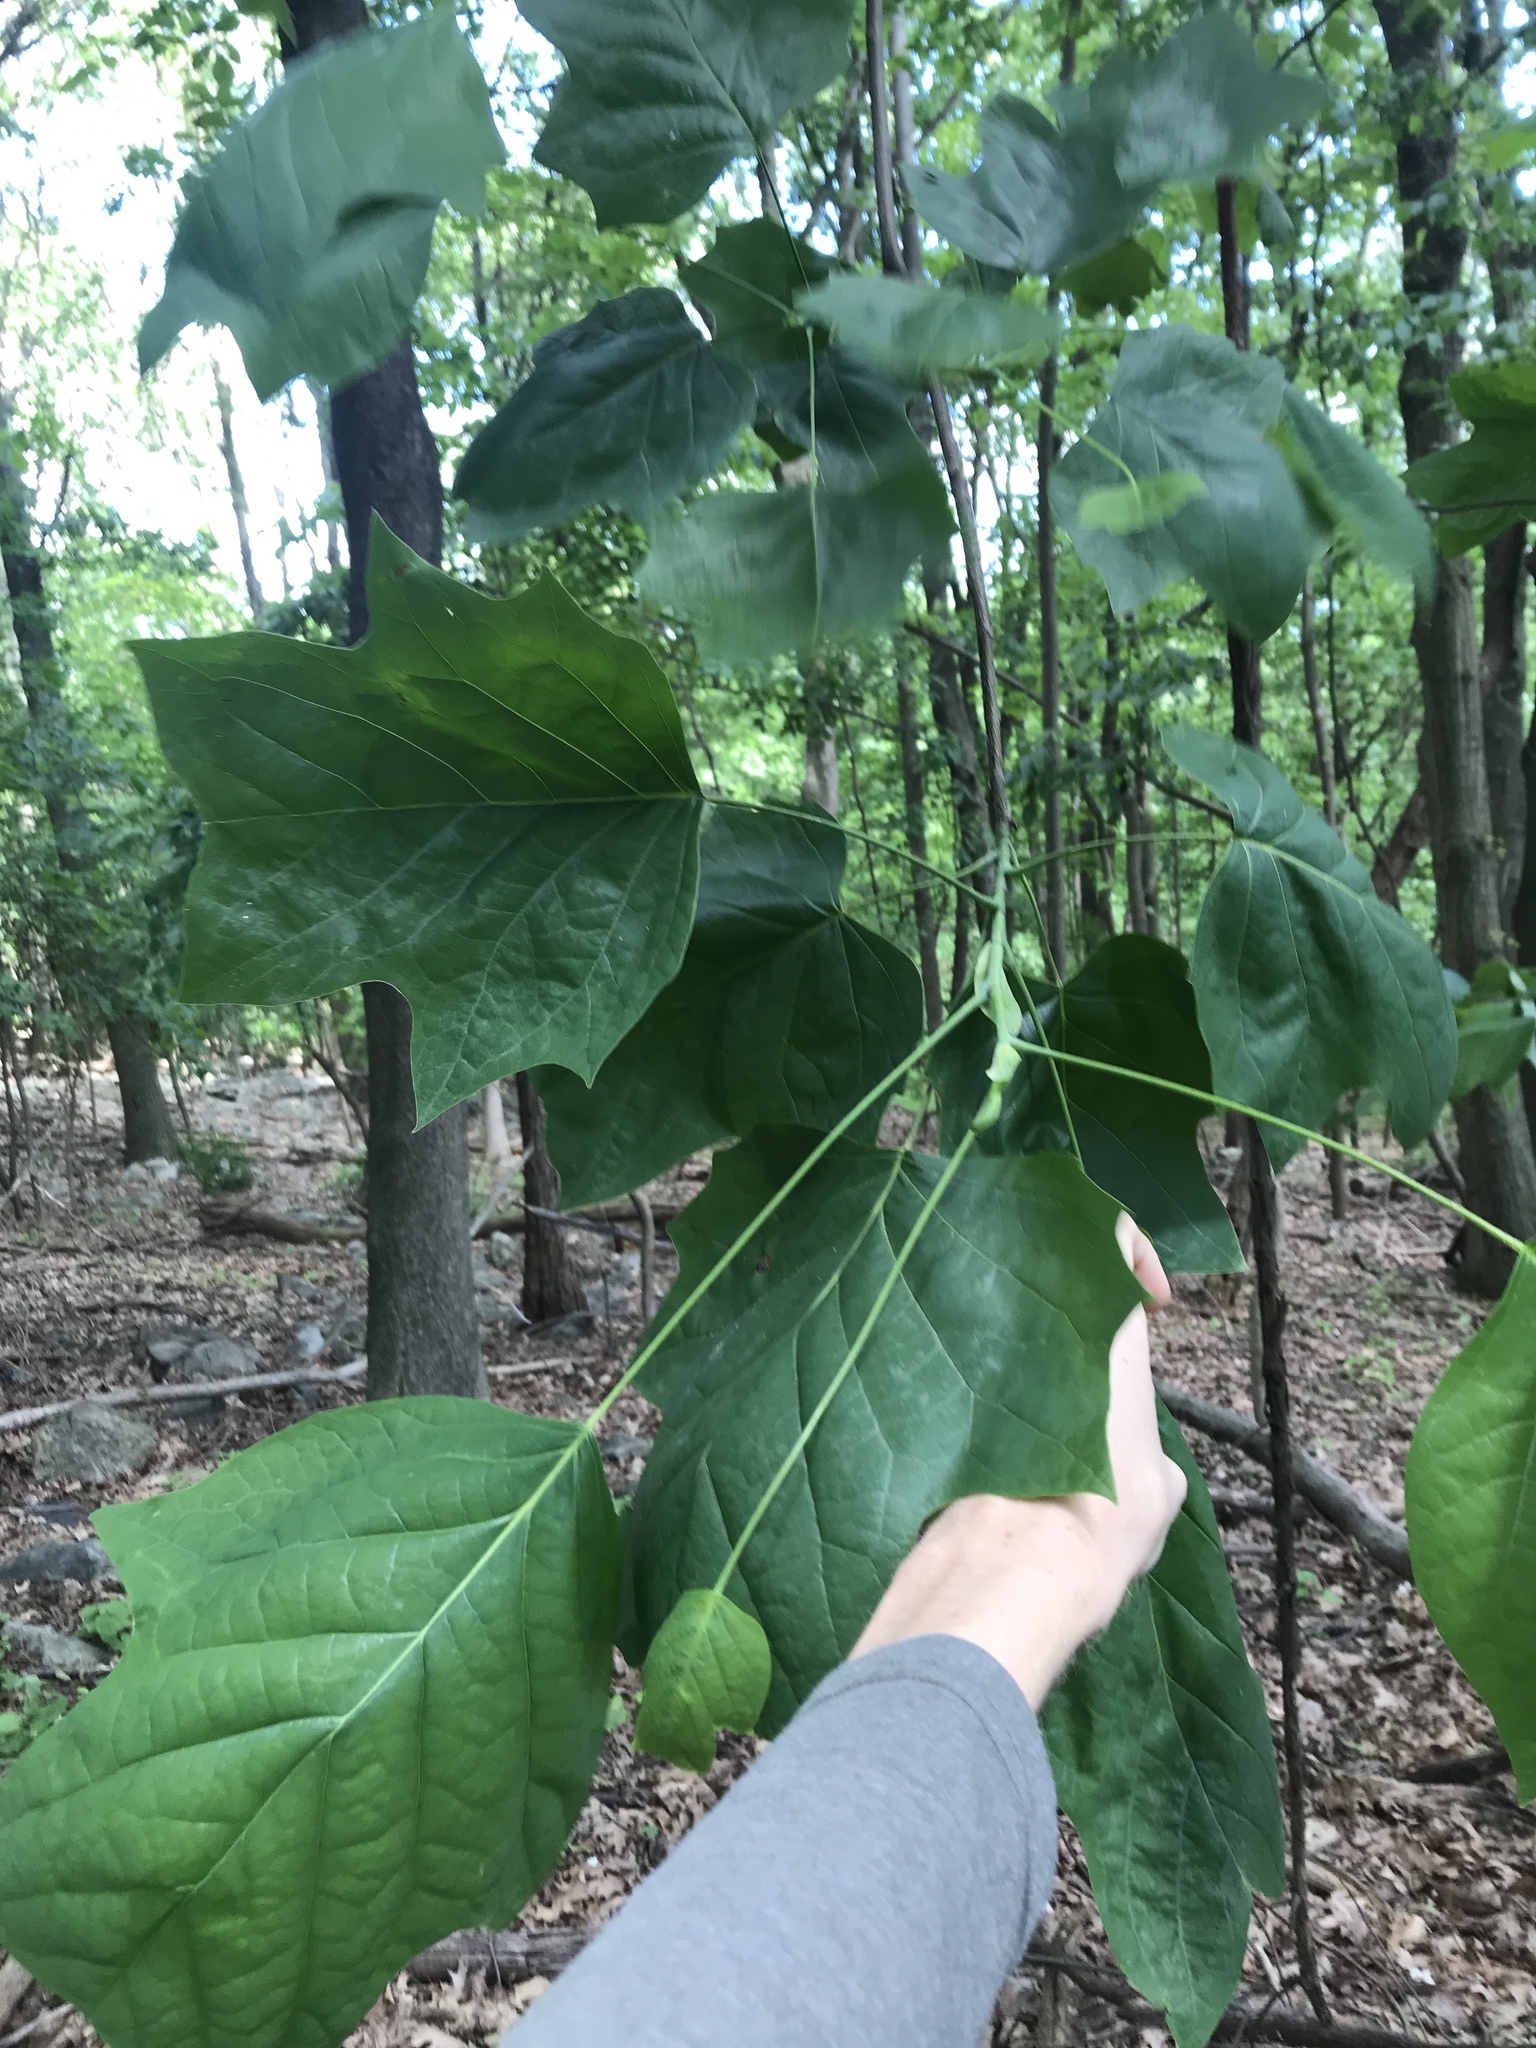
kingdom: Plantae
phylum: Tracheophyta
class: Magnoliopsida
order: Magnoliales
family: Magnoliaceae
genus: Liriodendron
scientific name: Liriodendron tulipifera
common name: Tulip tree
